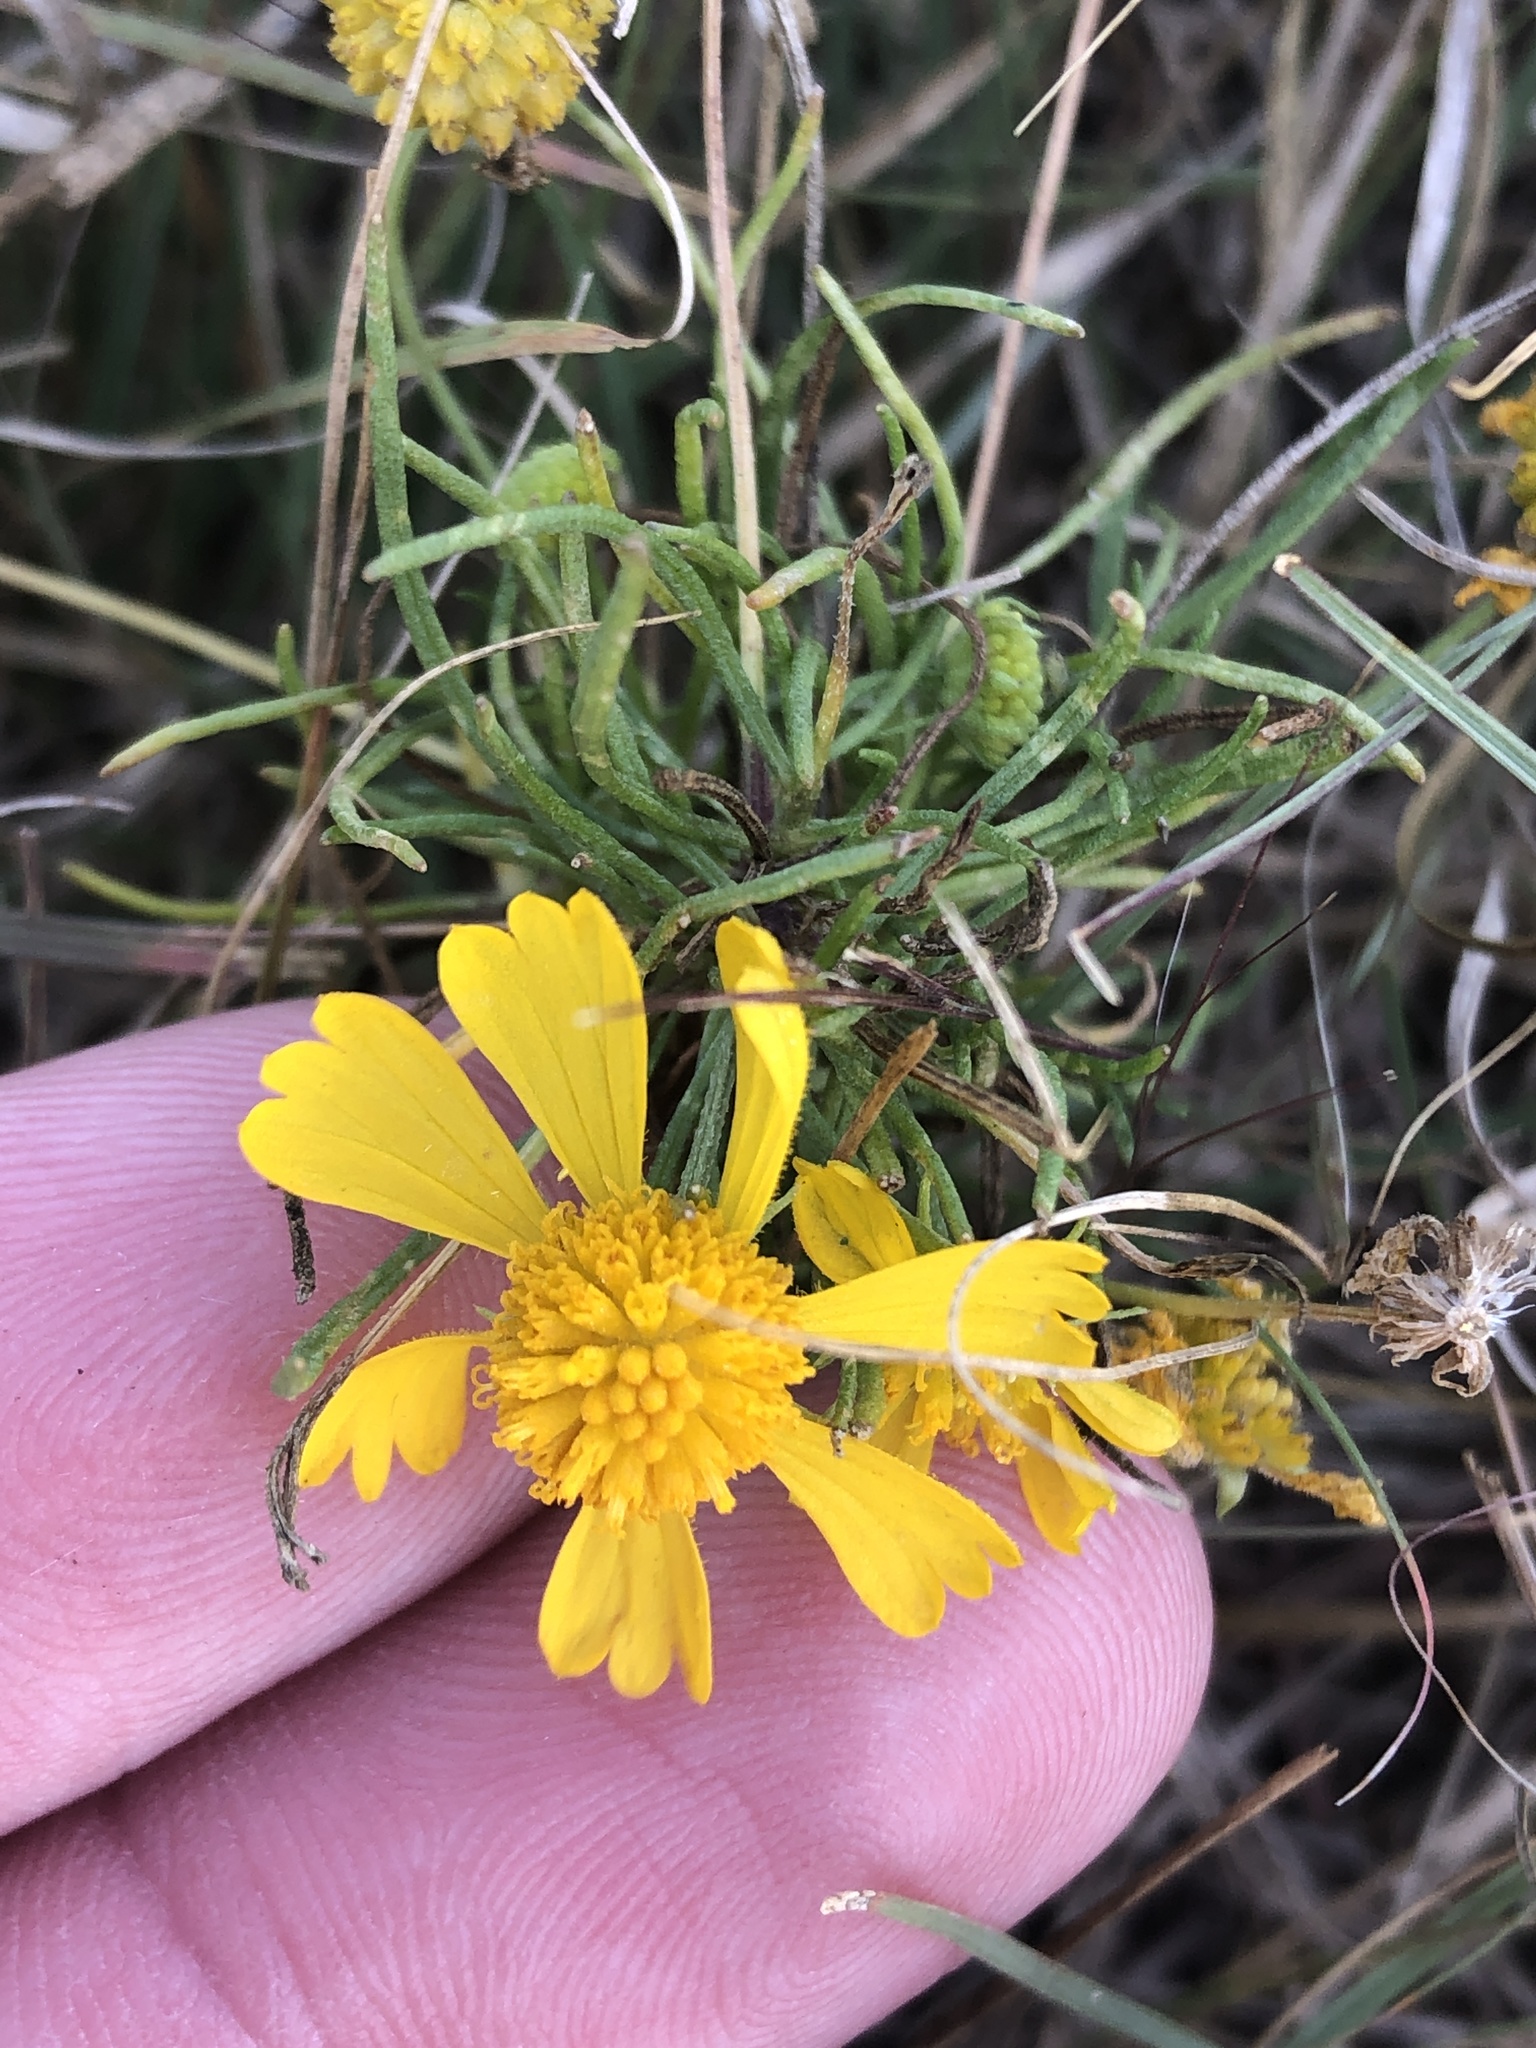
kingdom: Plantae
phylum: Tracheophyta
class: Magnoliopsida
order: Asterales
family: Asteraceae
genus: Helenium
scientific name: Helenium amarum
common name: Bitter sneezeweed
